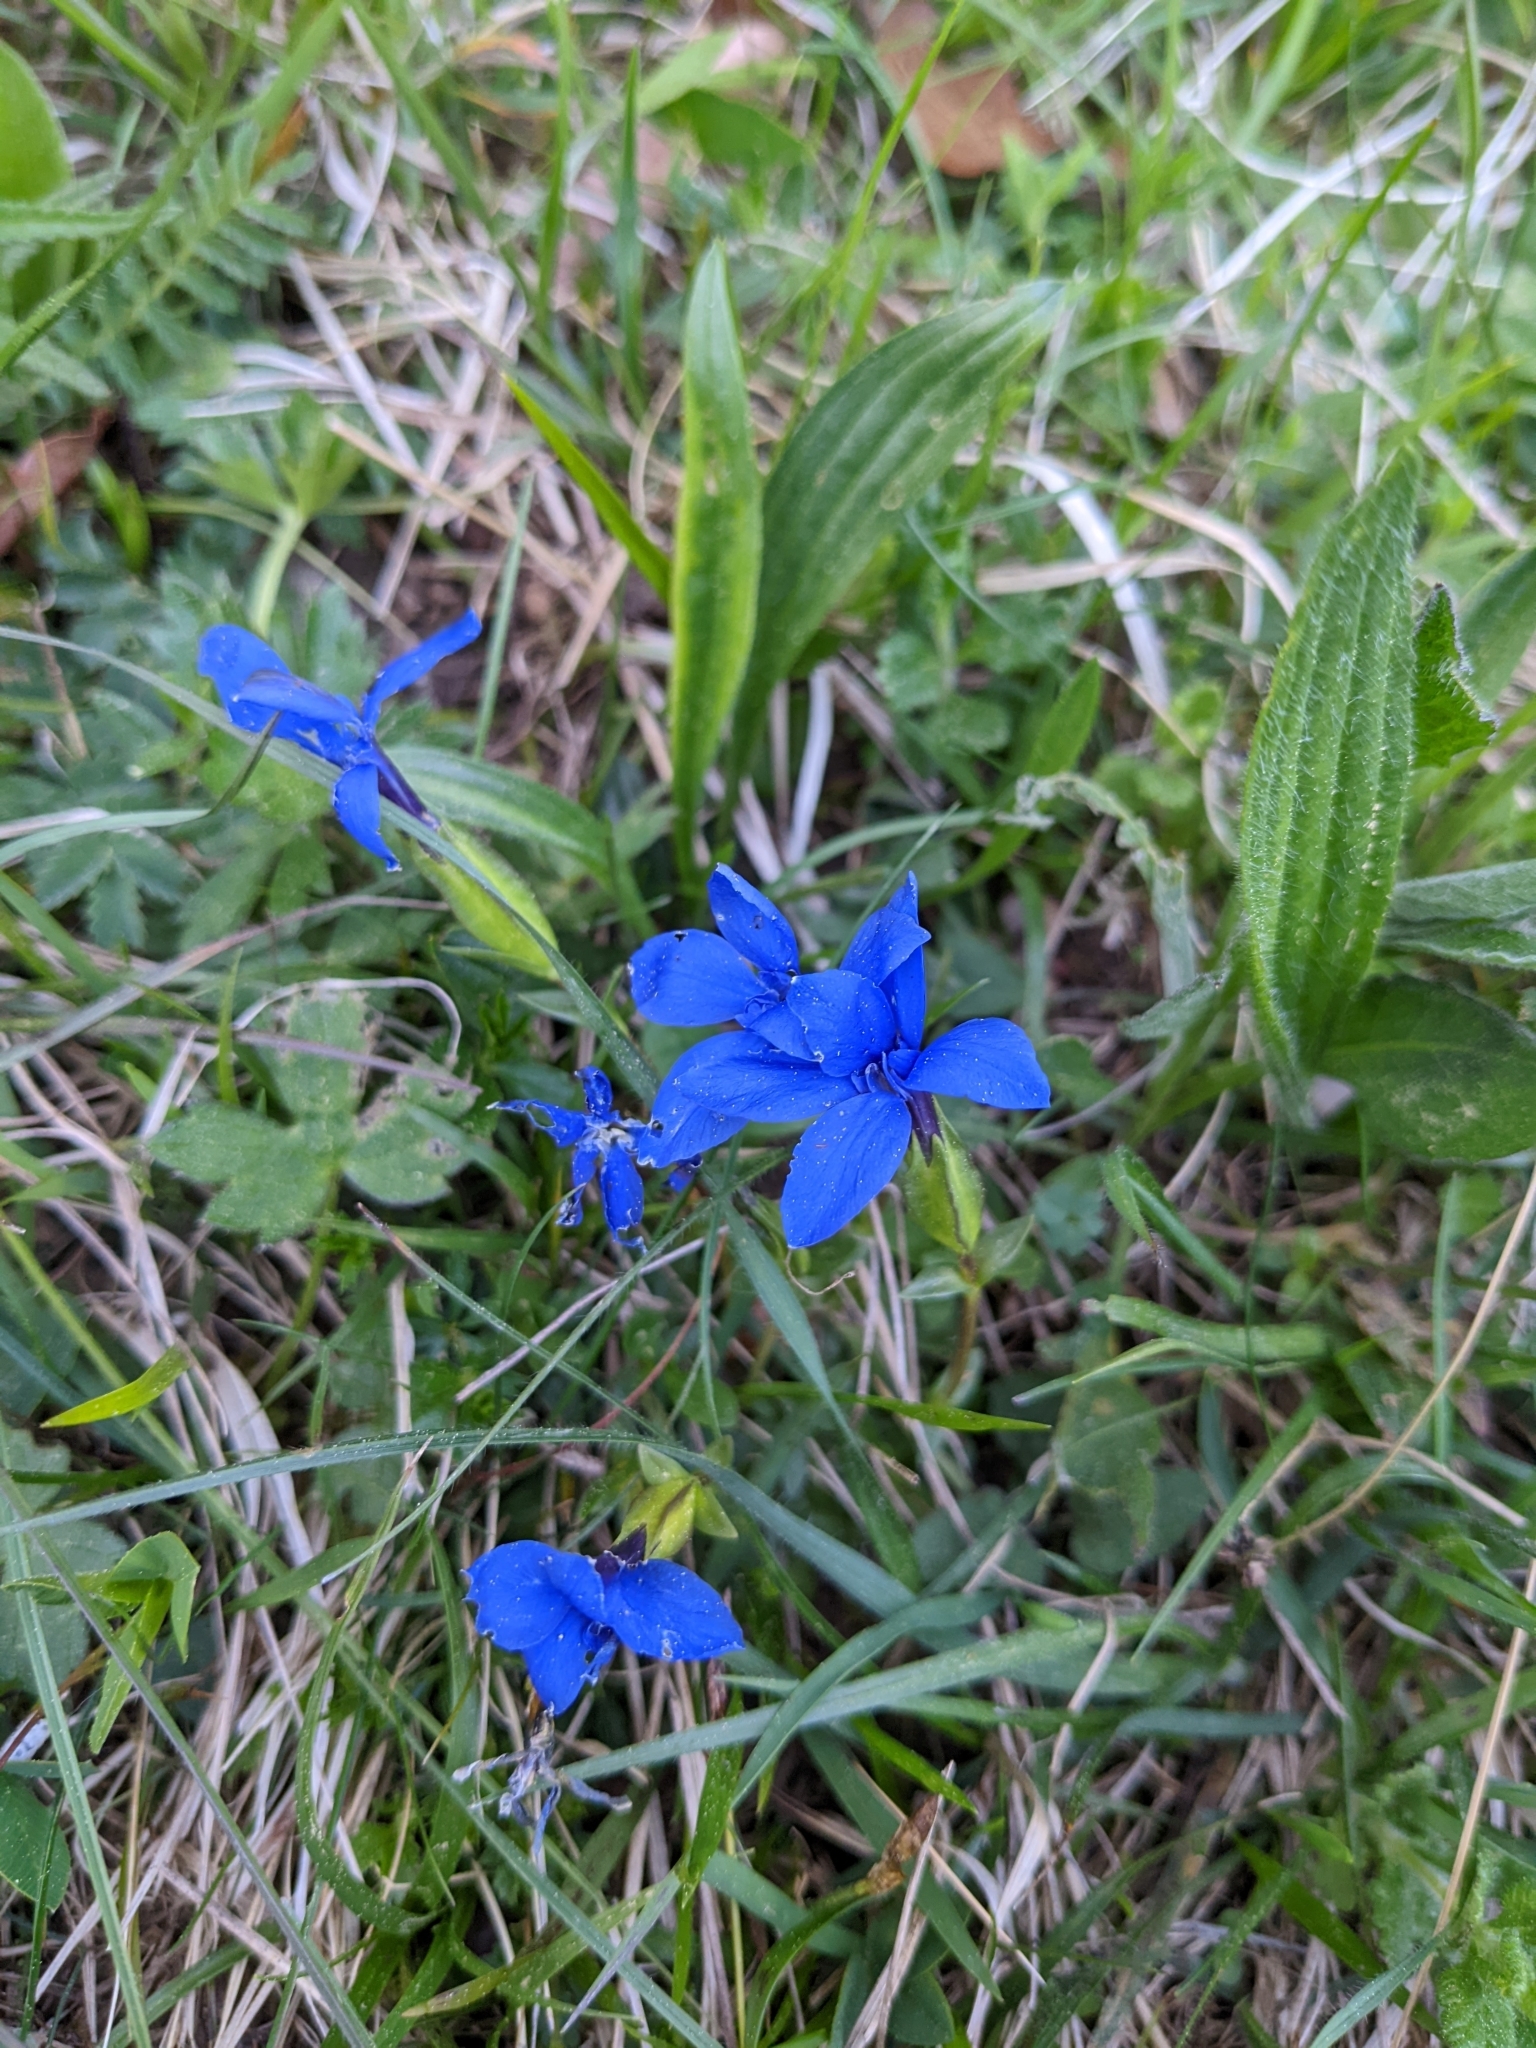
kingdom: Plantae
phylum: Tracheophyta
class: Magnoliopsida
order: Gentianales
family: Gentianaceae
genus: Gentiana
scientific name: Gentiana verna
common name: Spring gentian
